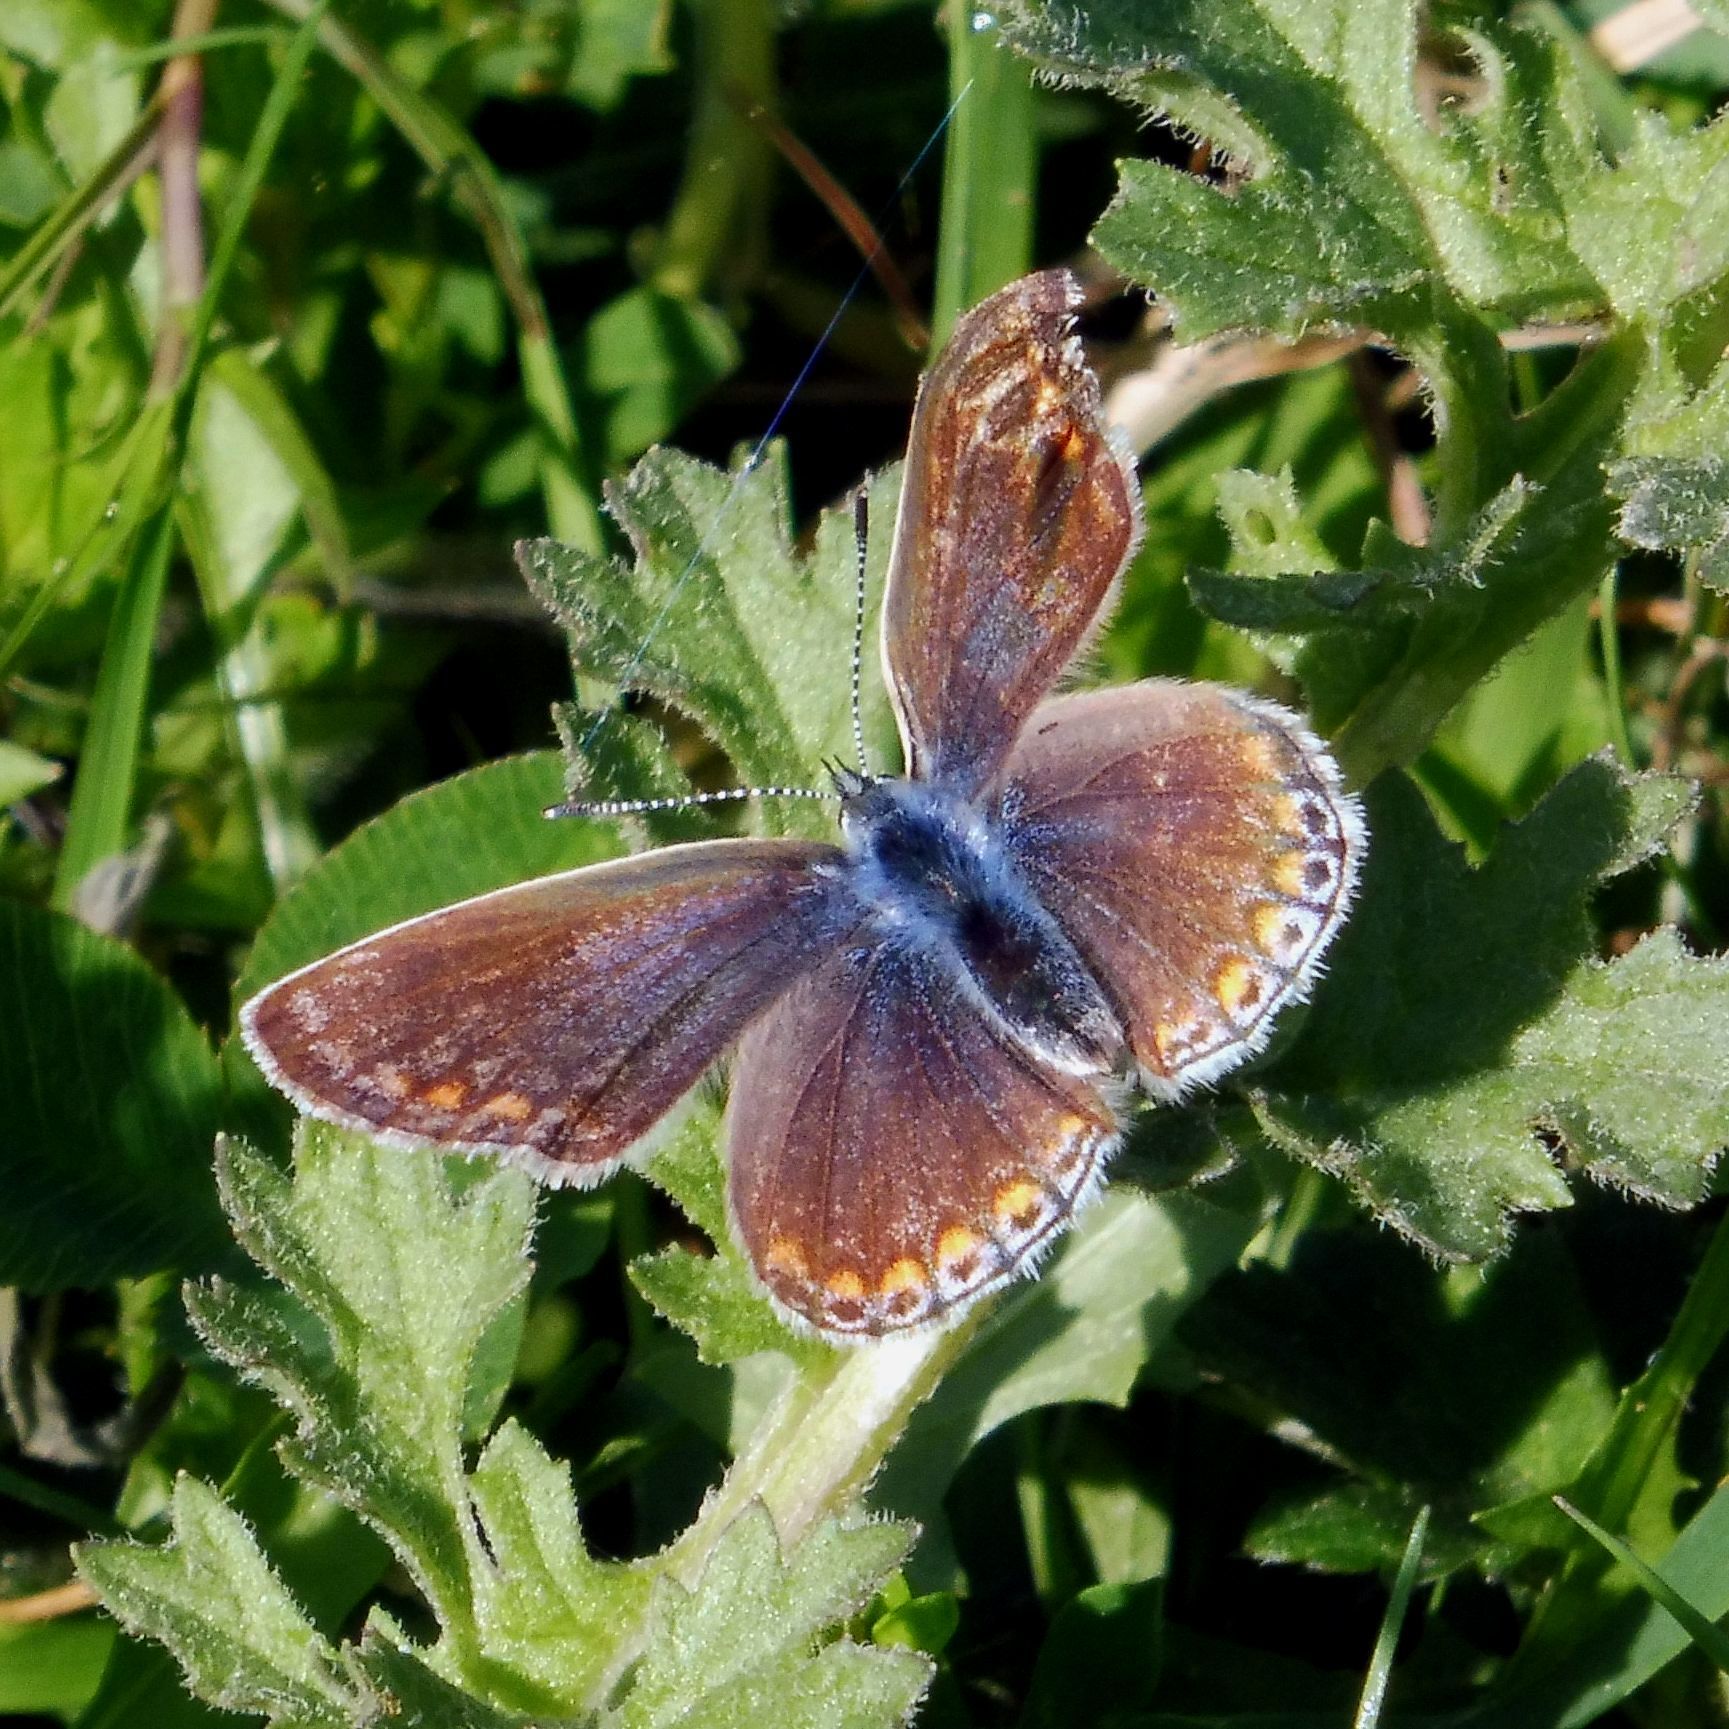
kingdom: Animalia
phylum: Arthropoda
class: Insecta
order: Lepidoptera
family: Lycaenidae
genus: Polyommatus
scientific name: Polyommatus icarus
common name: Common blue
